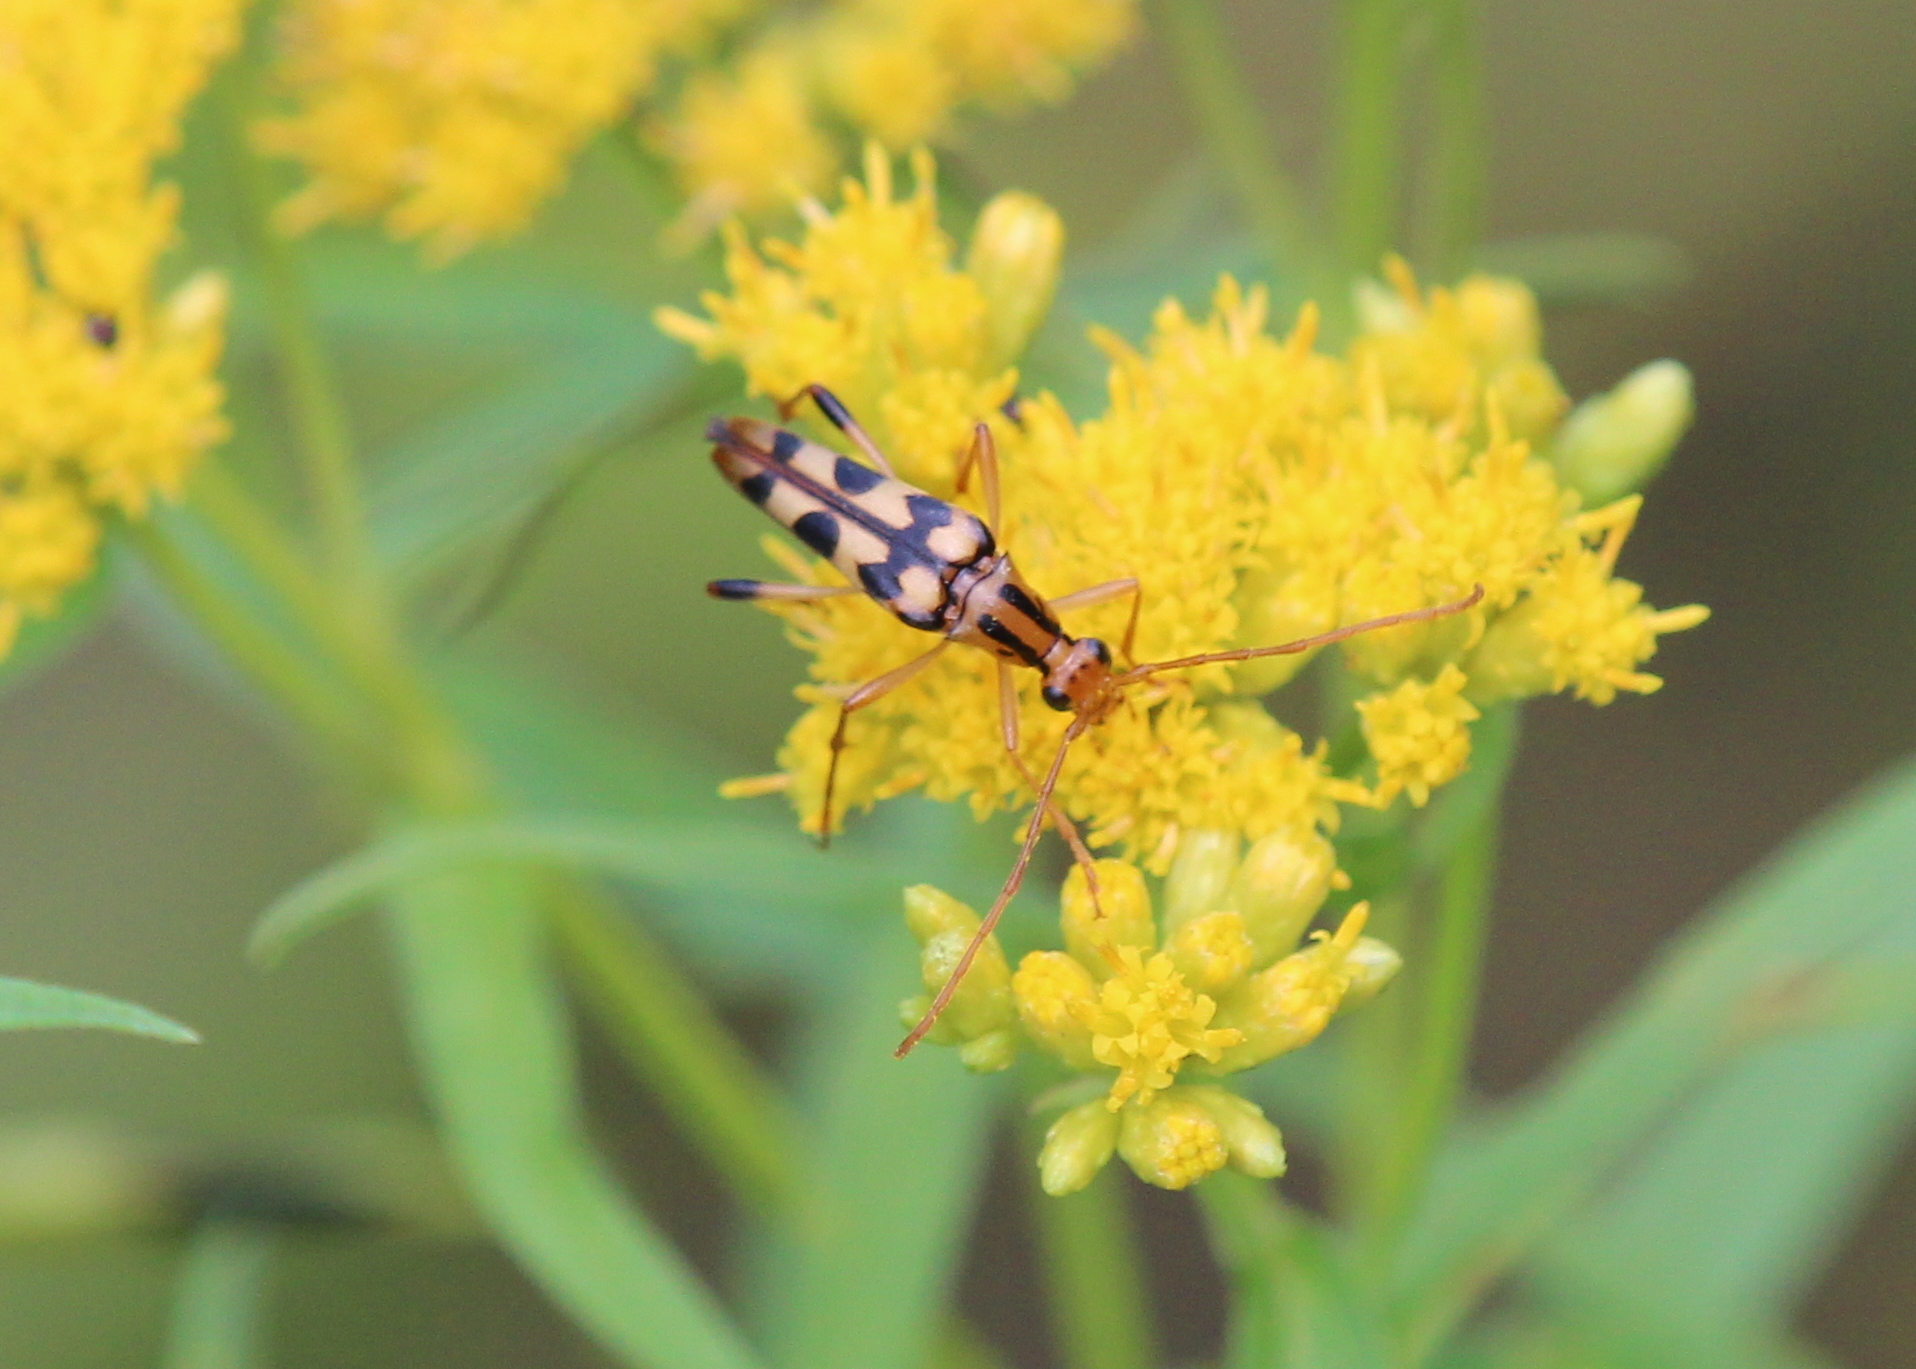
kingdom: Animalia
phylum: Arthropoda
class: Insecta
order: Coleoptera
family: Cerambycidae
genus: Strangalia
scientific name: Strangalia luteicornis
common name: Yellow-horned flower longhorn beetle
